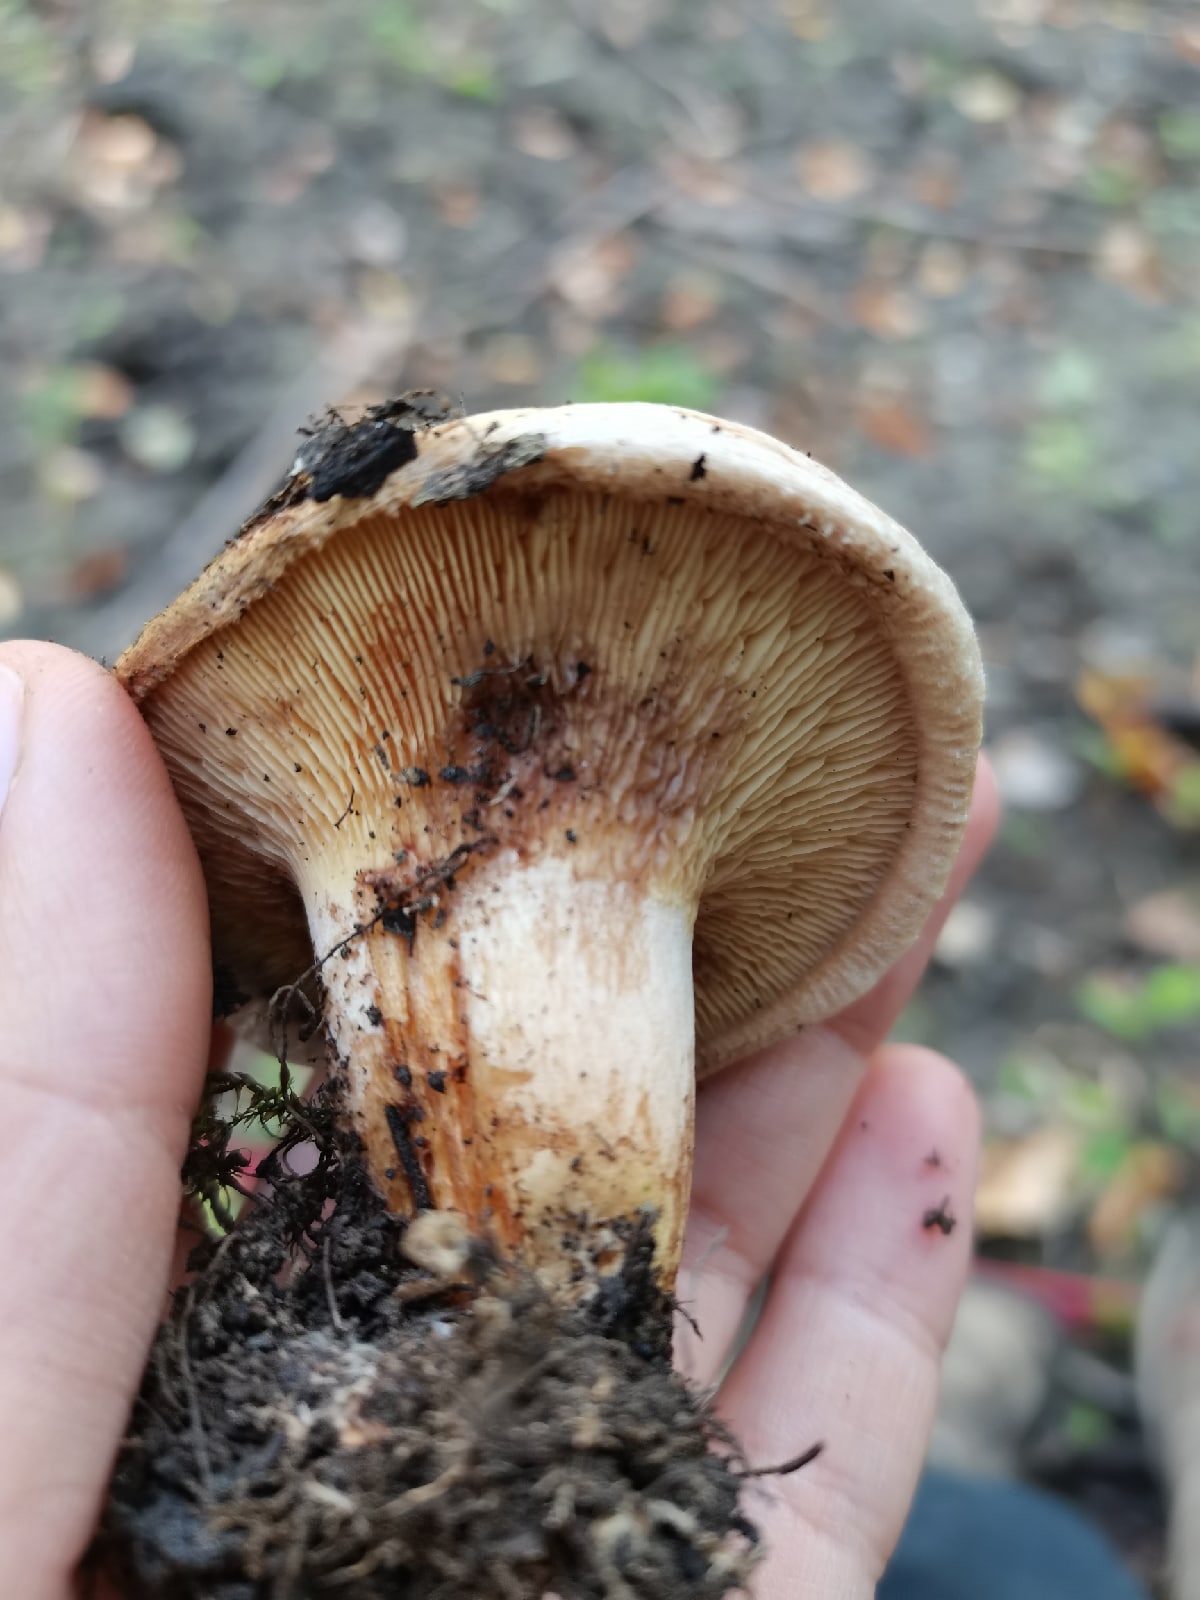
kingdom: Fungi
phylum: Basidiomycota
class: Agaricomycetes
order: Boletales
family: Paxillaceae
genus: Paxillus
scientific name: Paxillus involutus
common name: Brown roll rim
